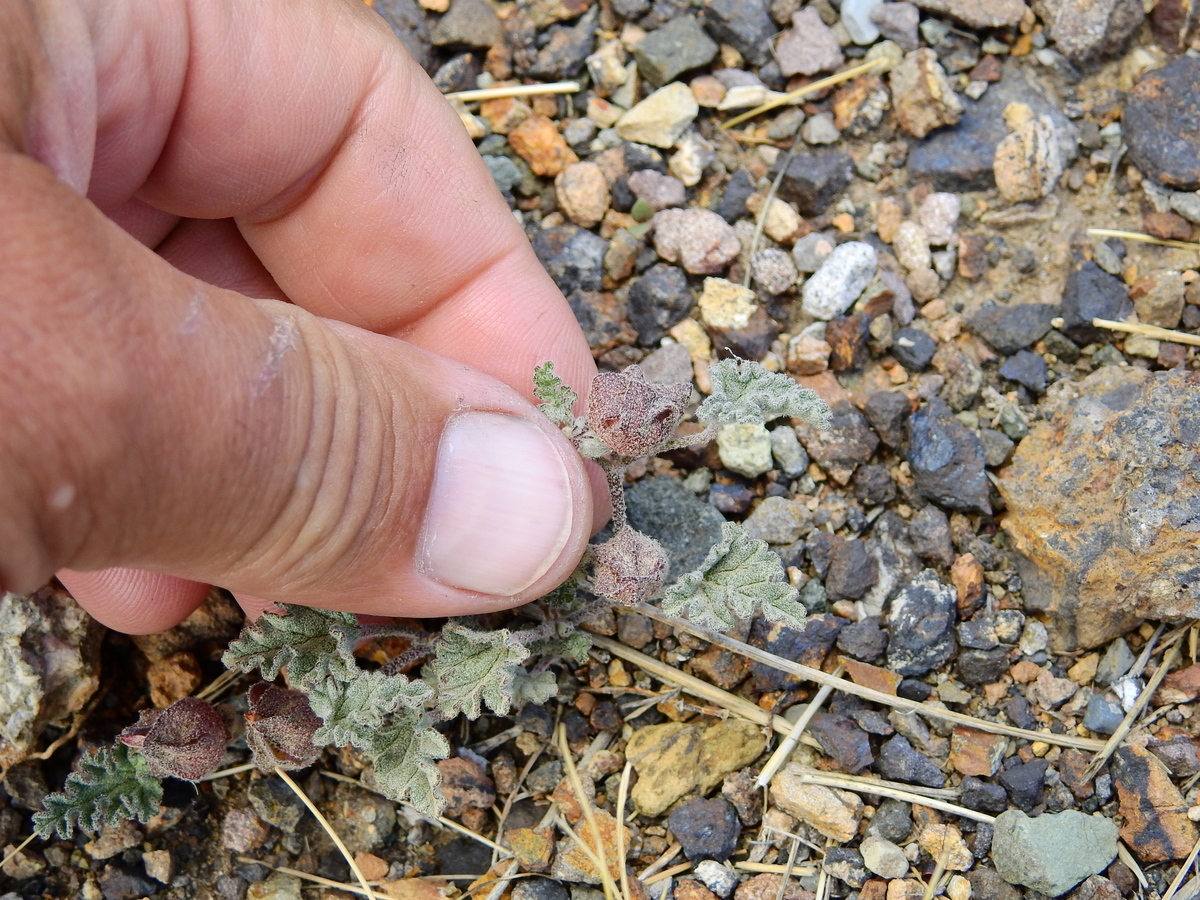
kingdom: Plantae
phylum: Tracheophyta
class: Magnoliopsida
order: Malvales
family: Malvaceae
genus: Sphaeralcea
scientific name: Sphaeralcea philippiana
